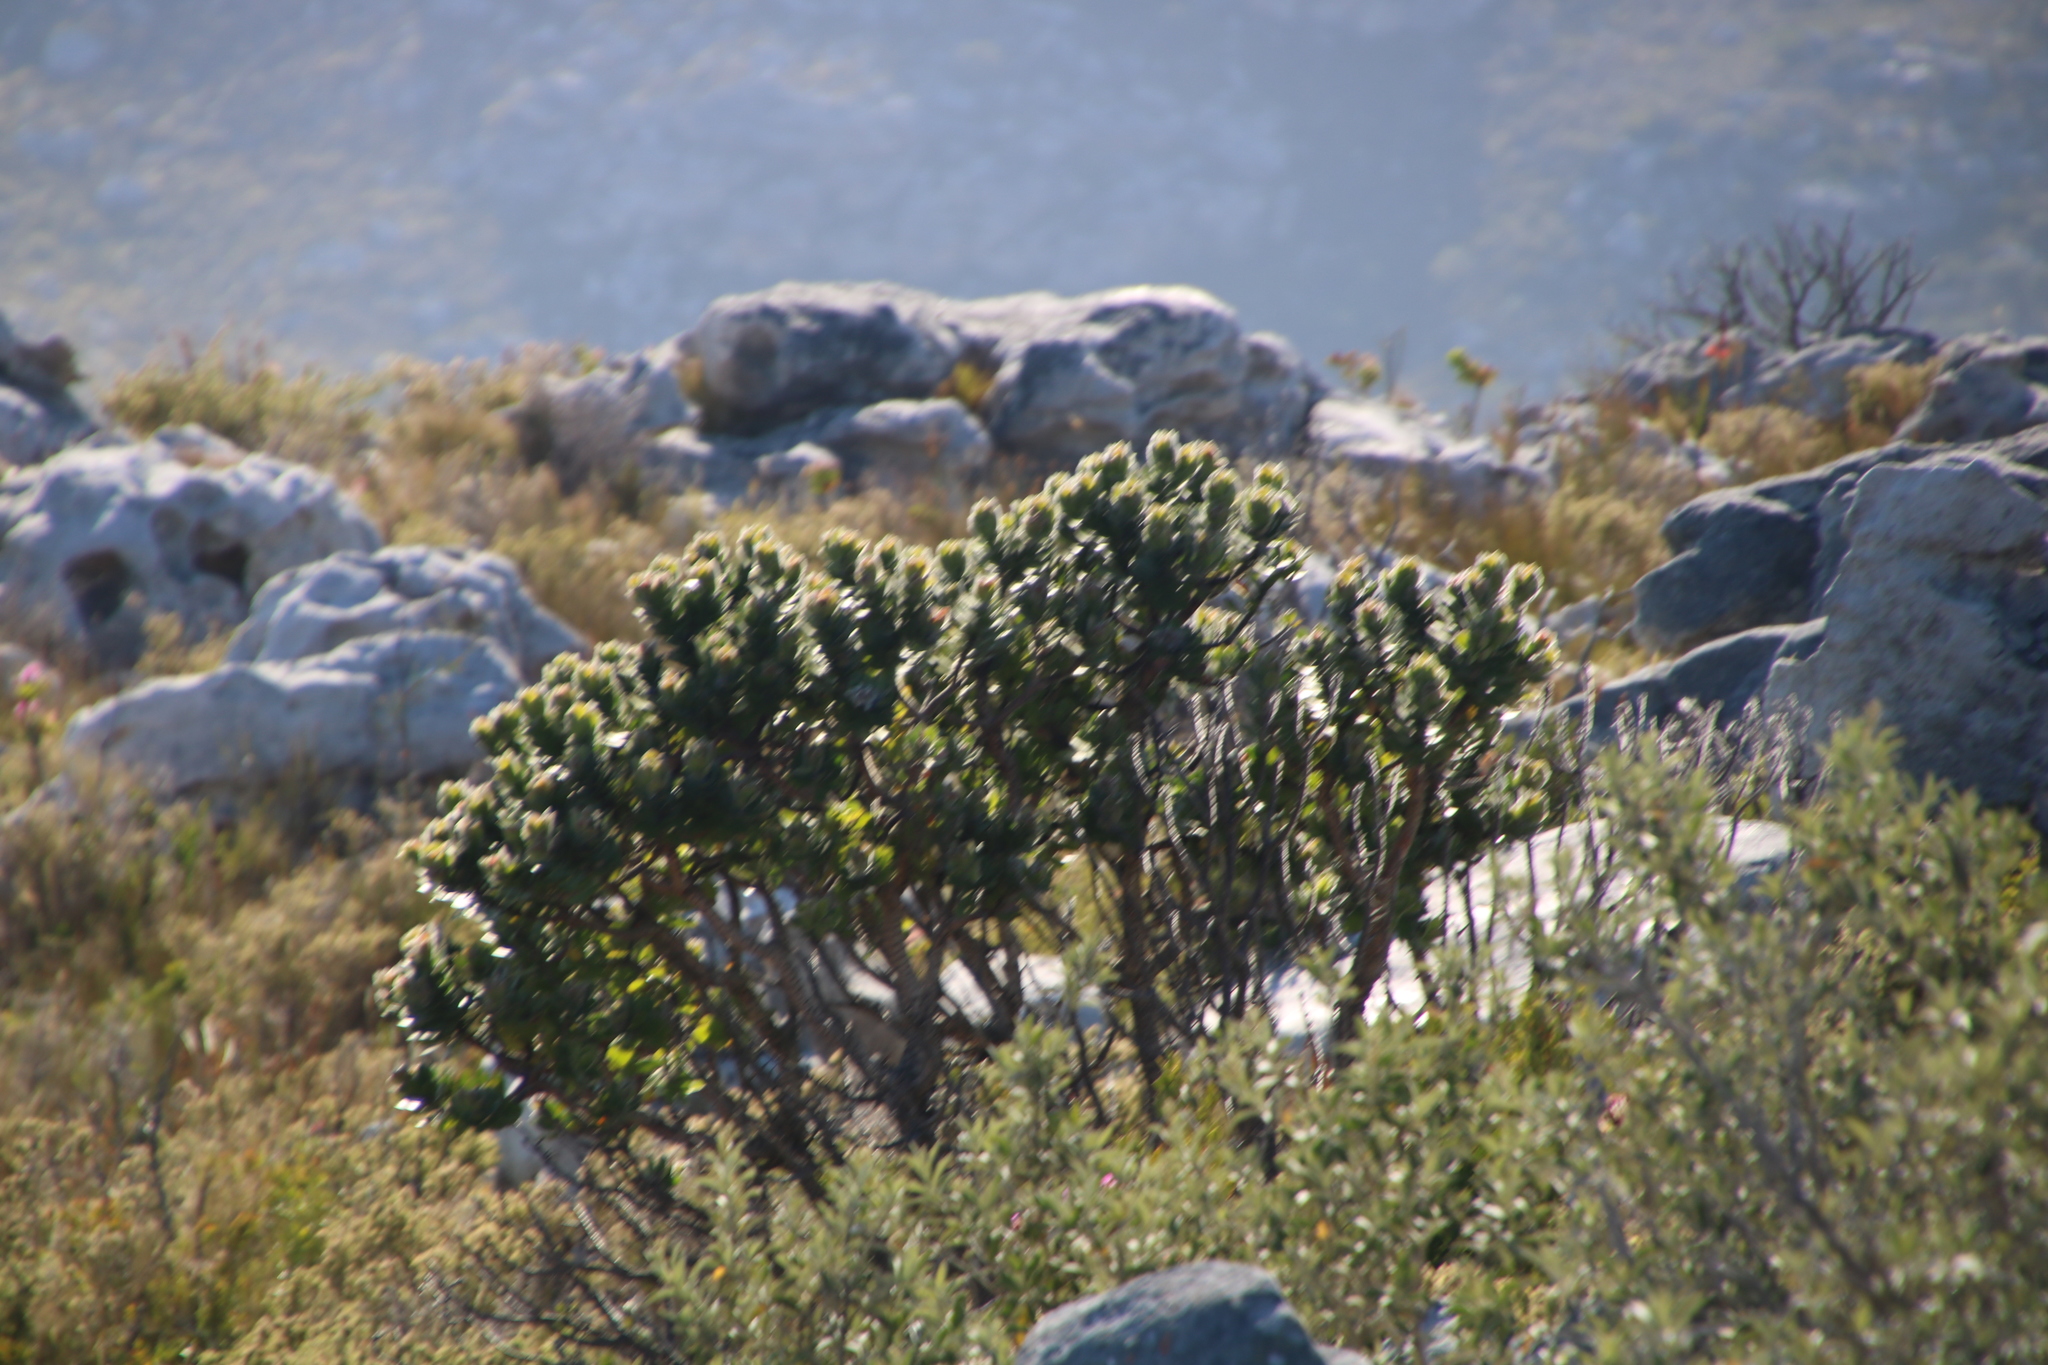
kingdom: Plantae
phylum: Tracheophyta
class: Magnoliopsida
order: Proteales
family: Proteaceae
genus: Leucospermum
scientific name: Leucospermum conocarpodendron
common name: Tree pincushion
